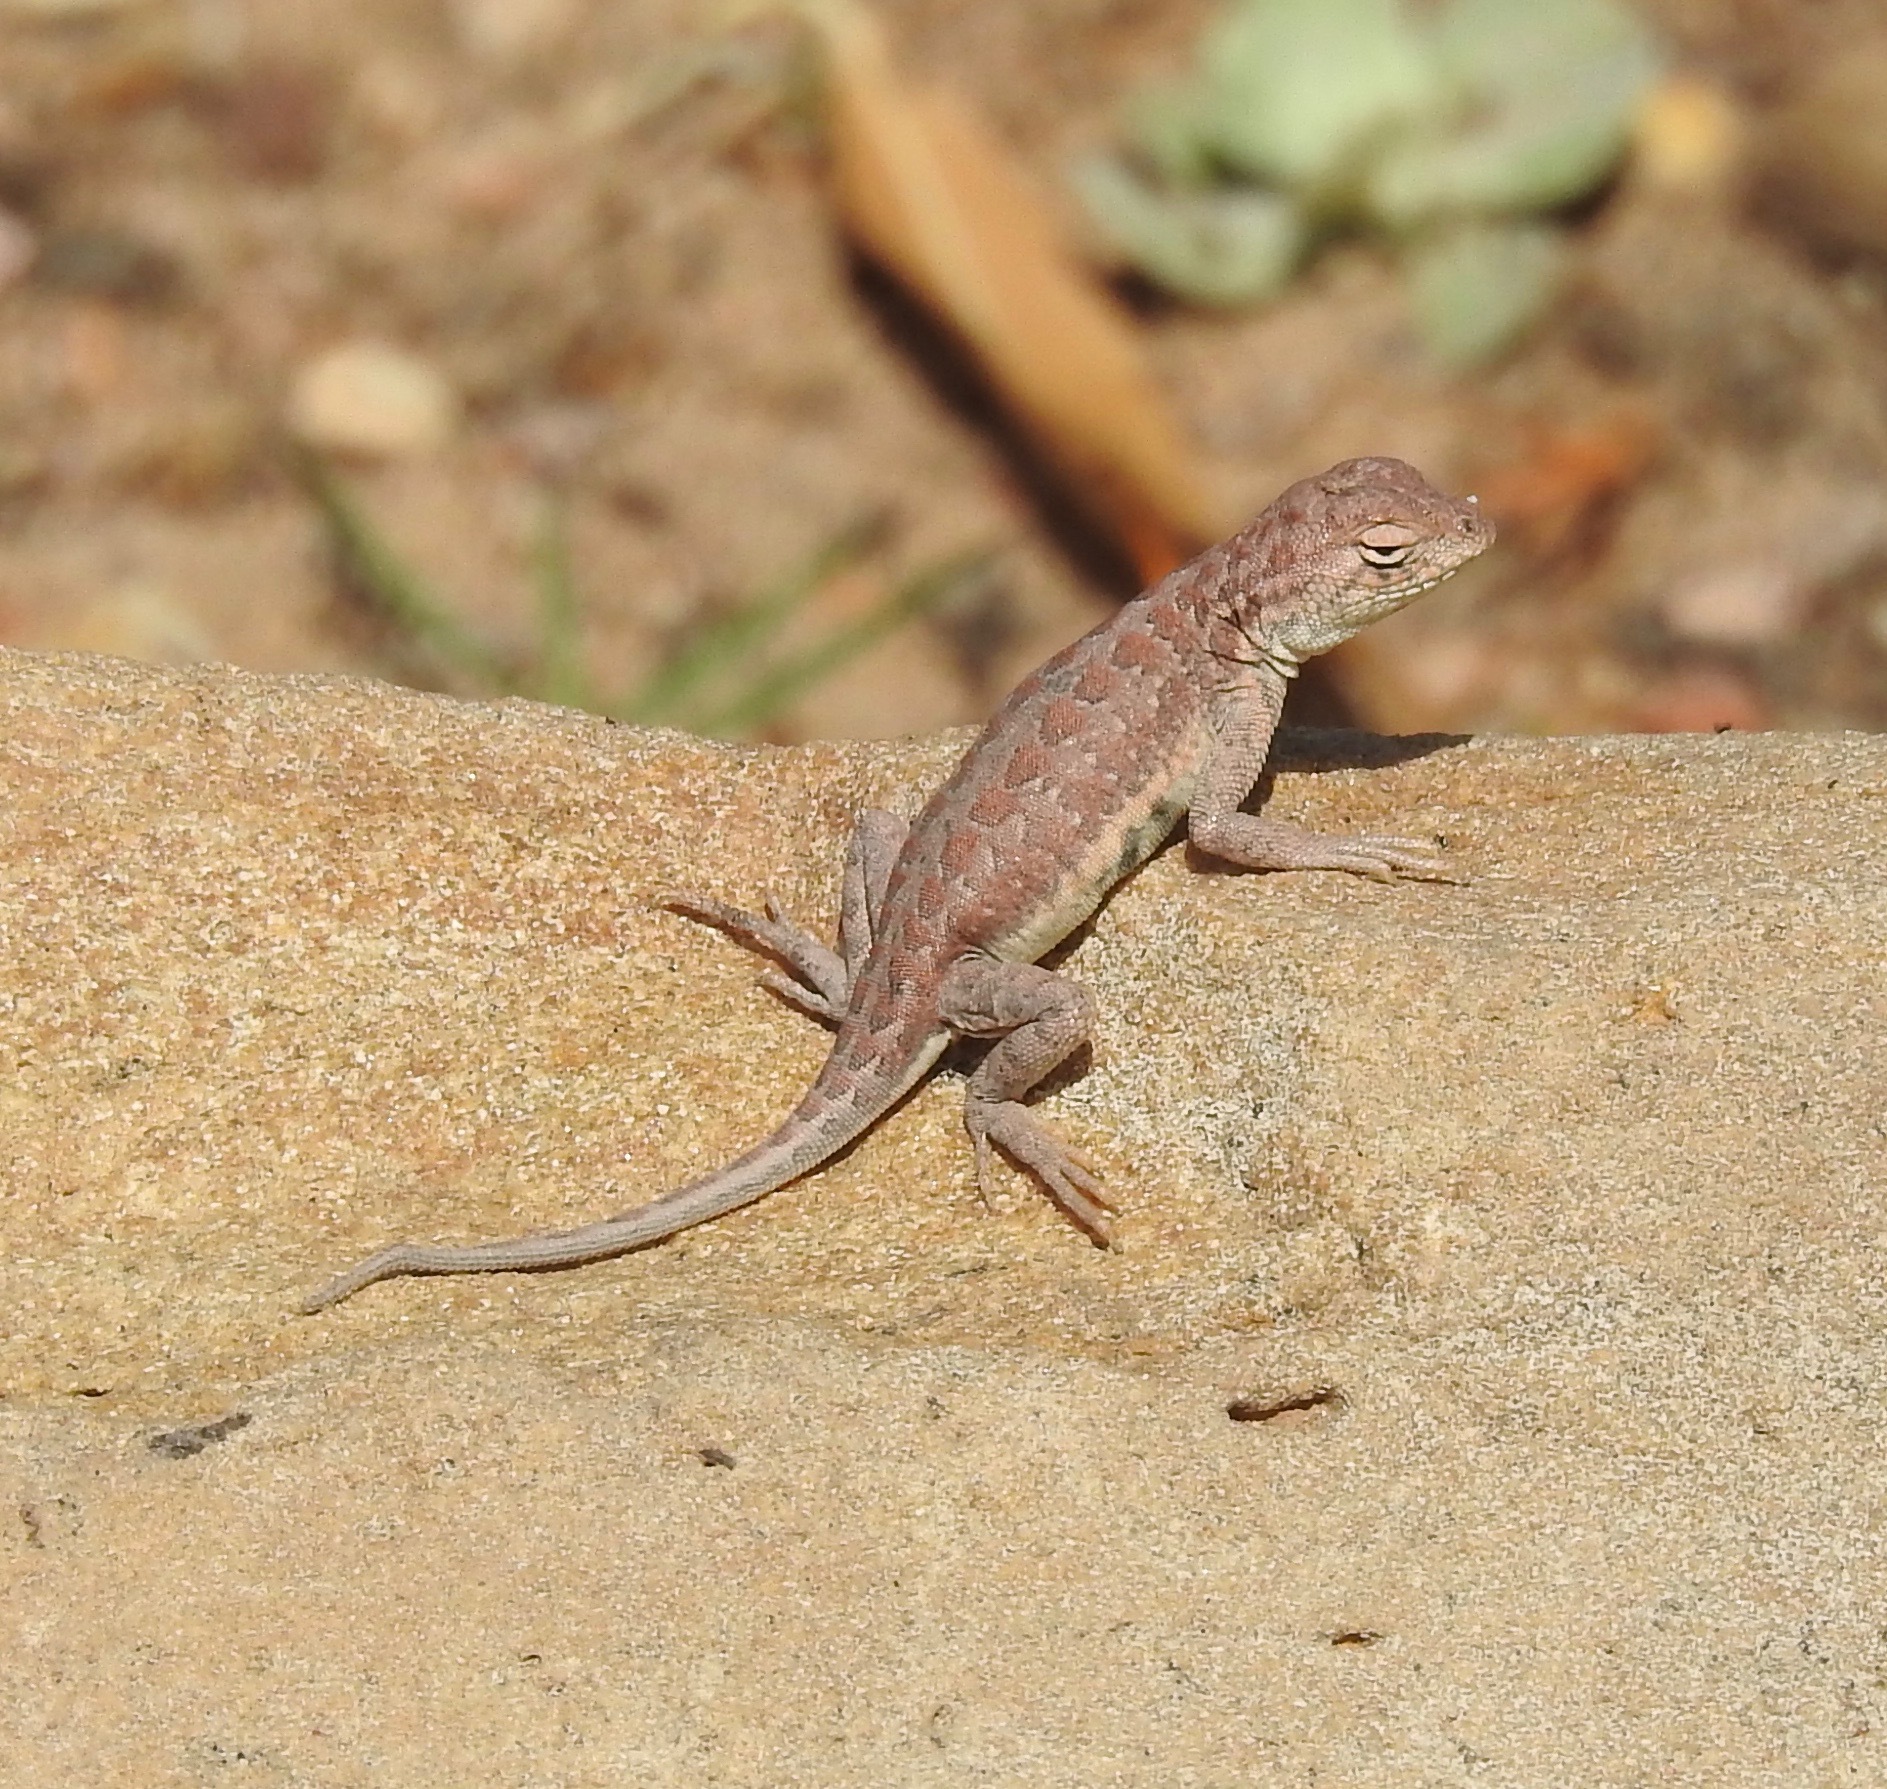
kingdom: Animalia
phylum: Chordata
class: Squamata
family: Phrynosomatidae
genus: Holbrookia
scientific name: Holbrookia elegans
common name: Elegant earless lizard
